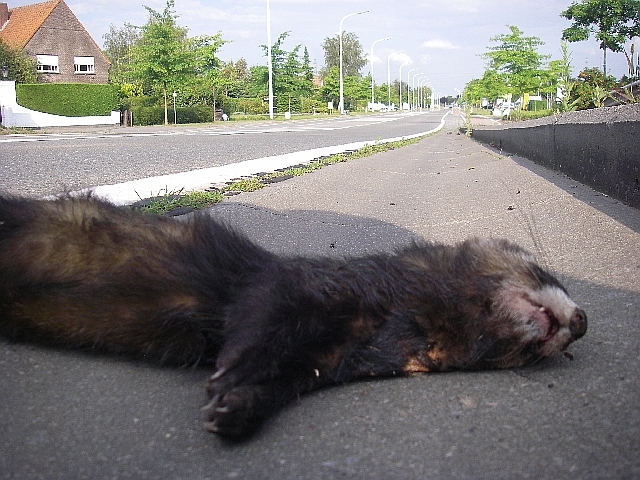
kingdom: Animalia
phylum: Chordata
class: Mammalia
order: Carnivora
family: Mustelidae
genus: Mustela
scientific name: Mustela putorius
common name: European polecat
